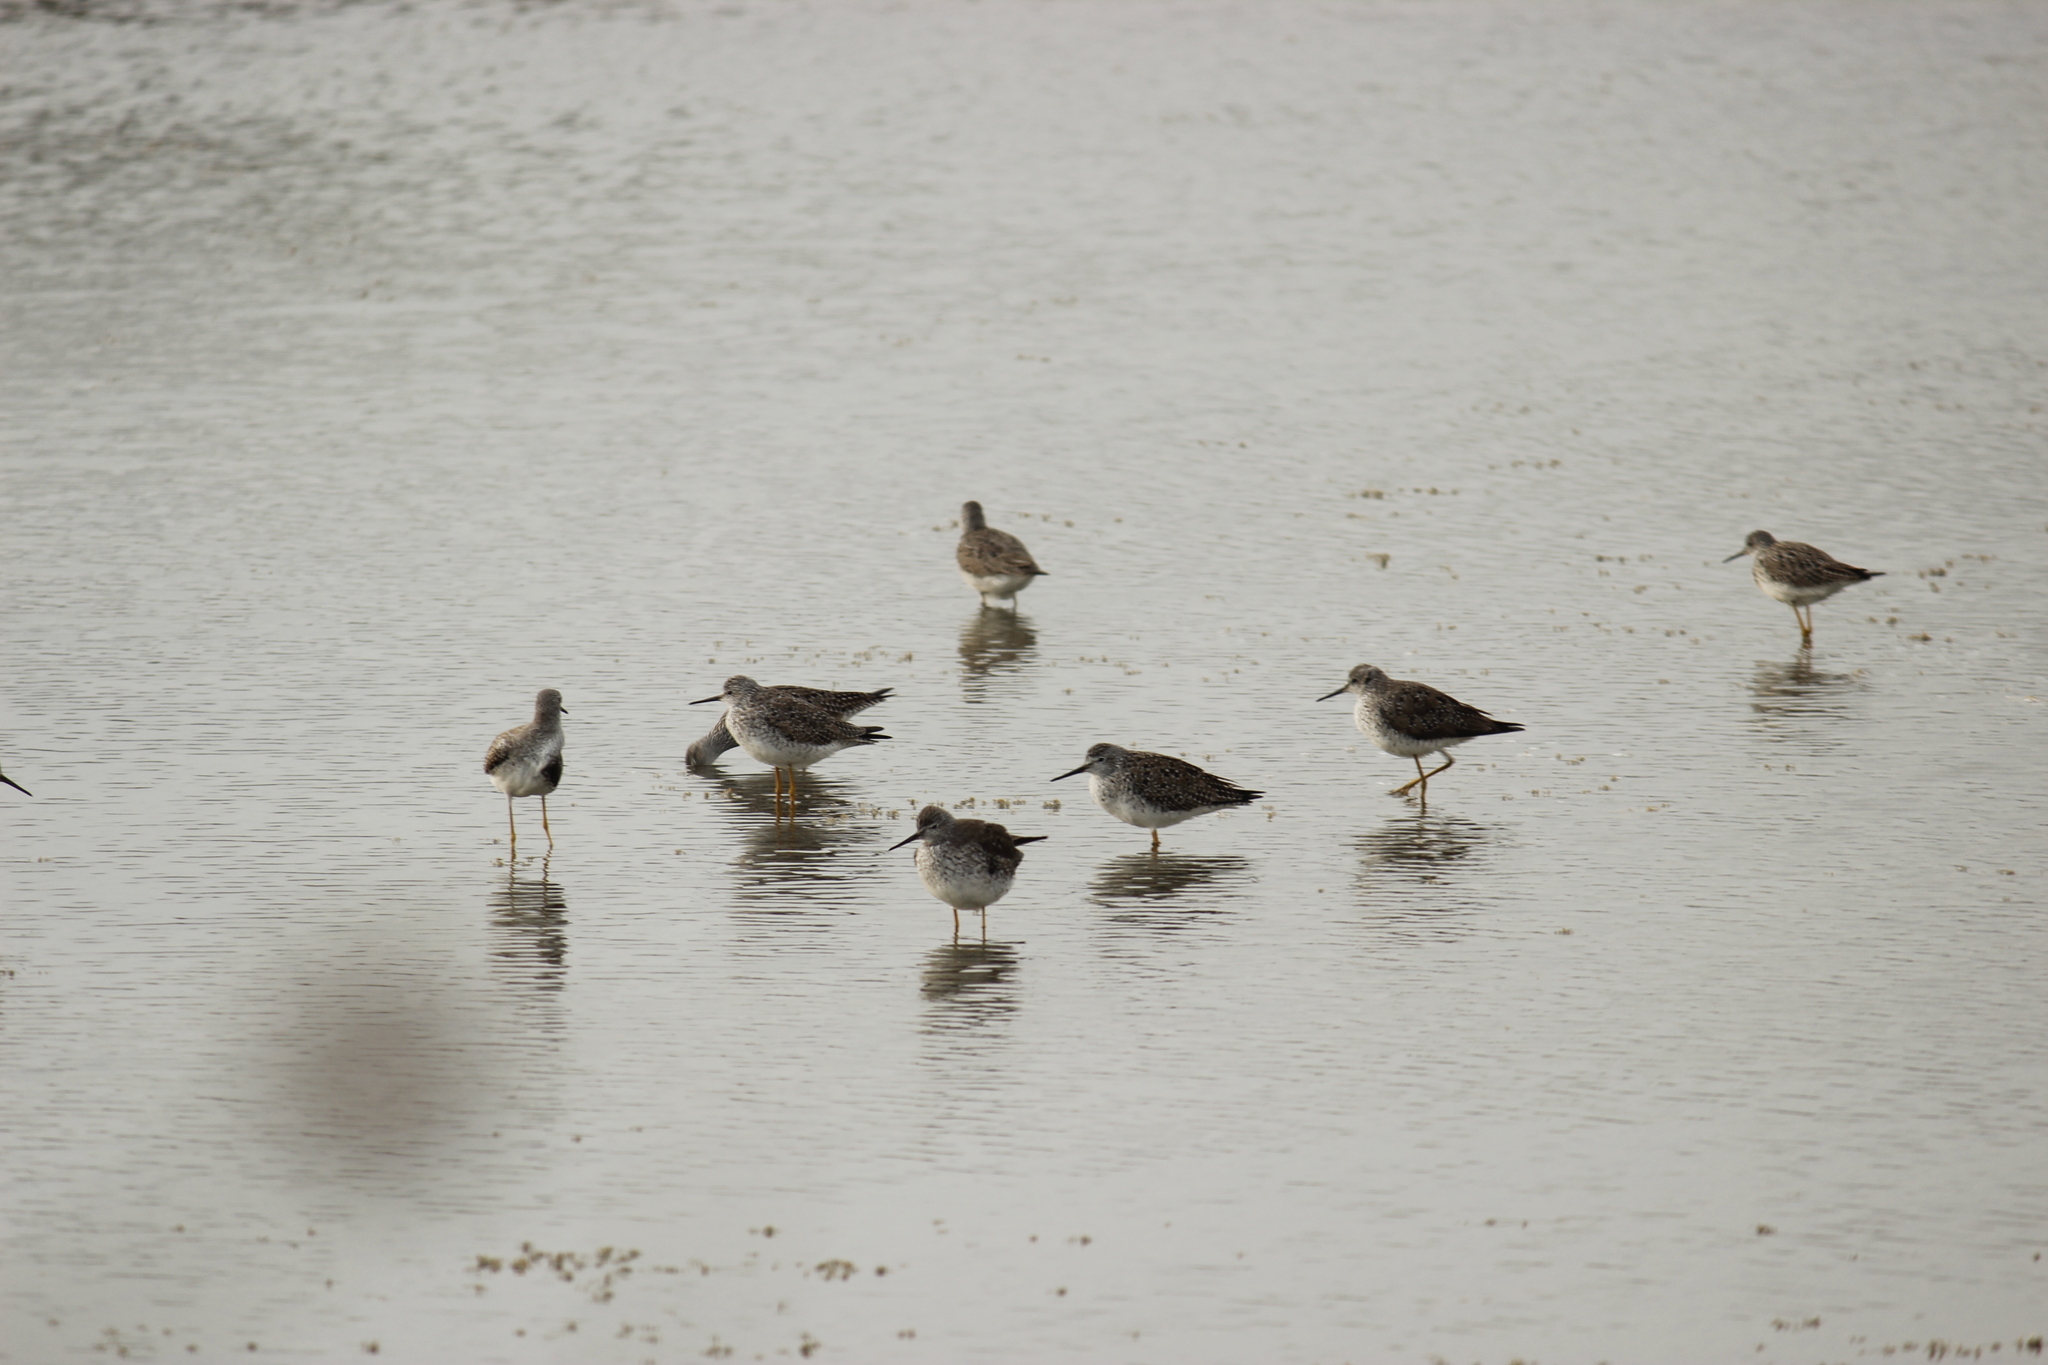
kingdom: Animalia
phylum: Chordata
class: Aves
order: Charadriiformes
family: Scolopacidae
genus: Tringa
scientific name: Tringa flavipes
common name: Lesser yellowlegs
